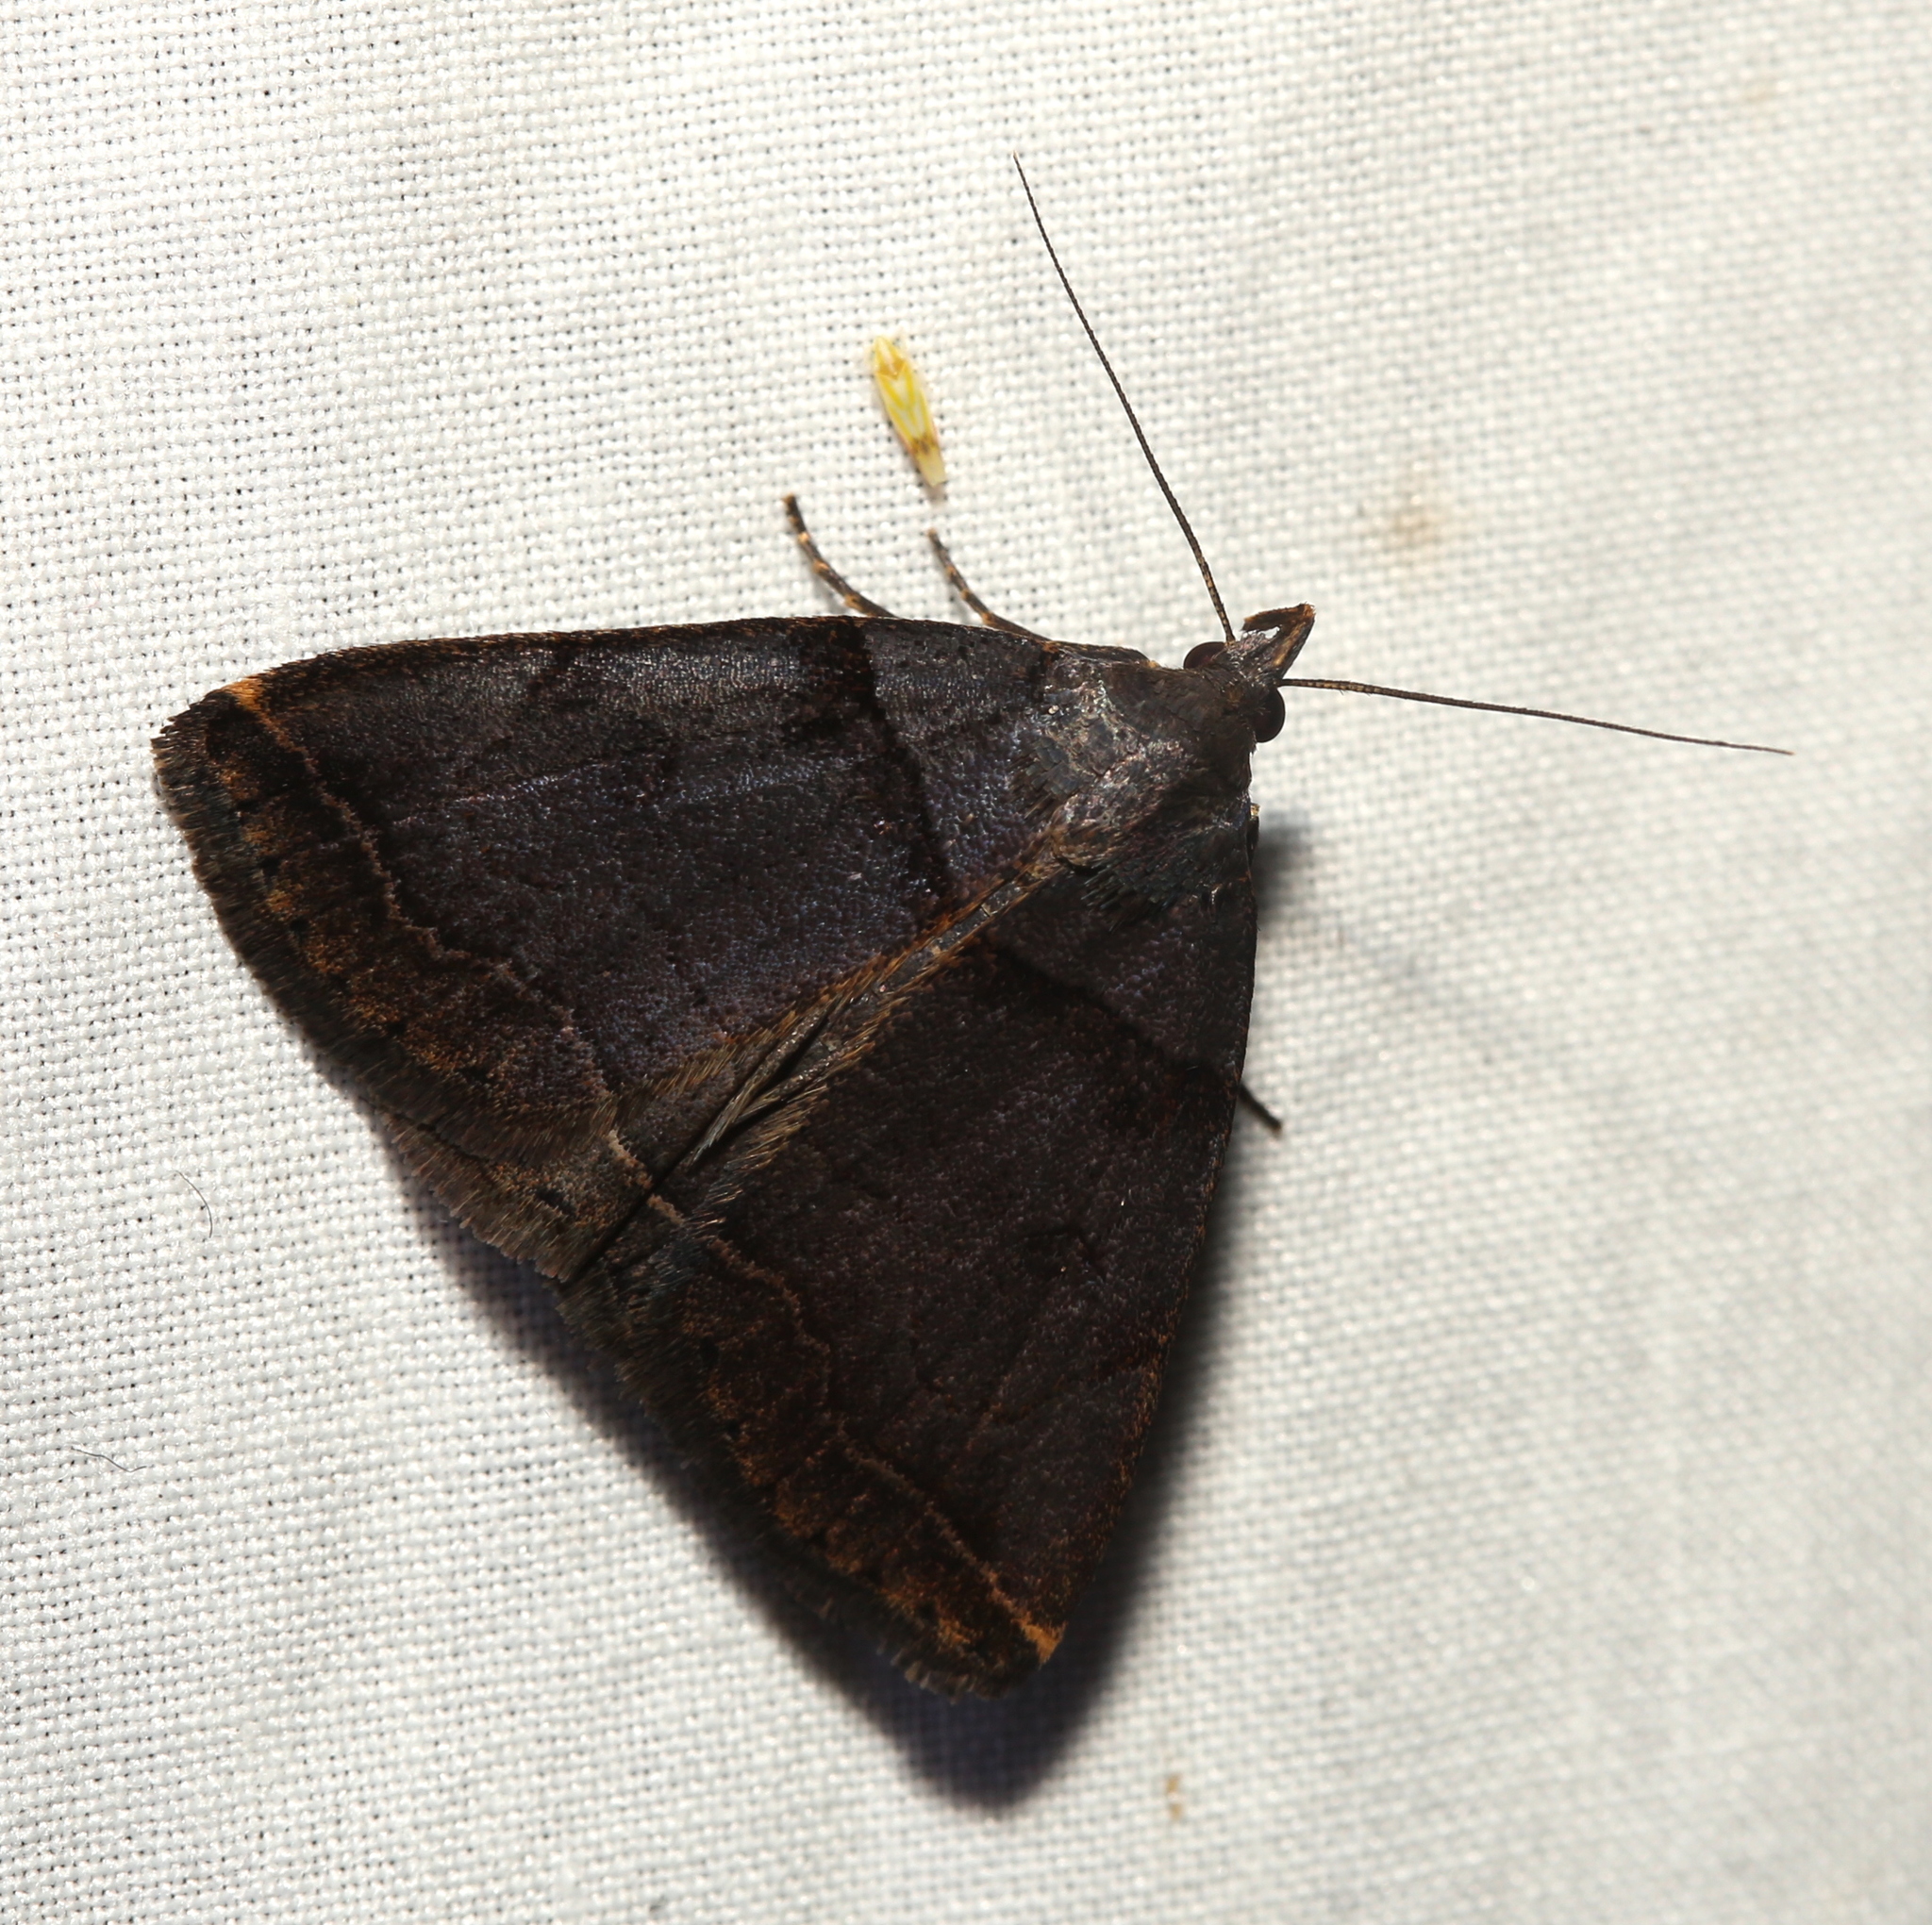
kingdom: Animalia
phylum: Arthropoda
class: Insecta
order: Lepidoptera
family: Erebidae
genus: Zanclognatha
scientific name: Zanclognatha laevigata
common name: Variable fan-foot
